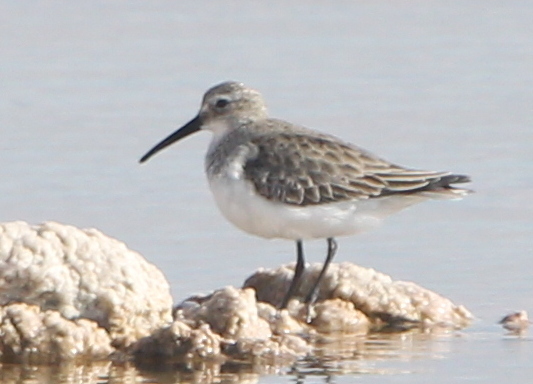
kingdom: Animalia
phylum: Chordata
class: Aves
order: Charadriiformes
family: Scolopacidae
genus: Calidris
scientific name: Calidris alpina
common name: Dunlin
